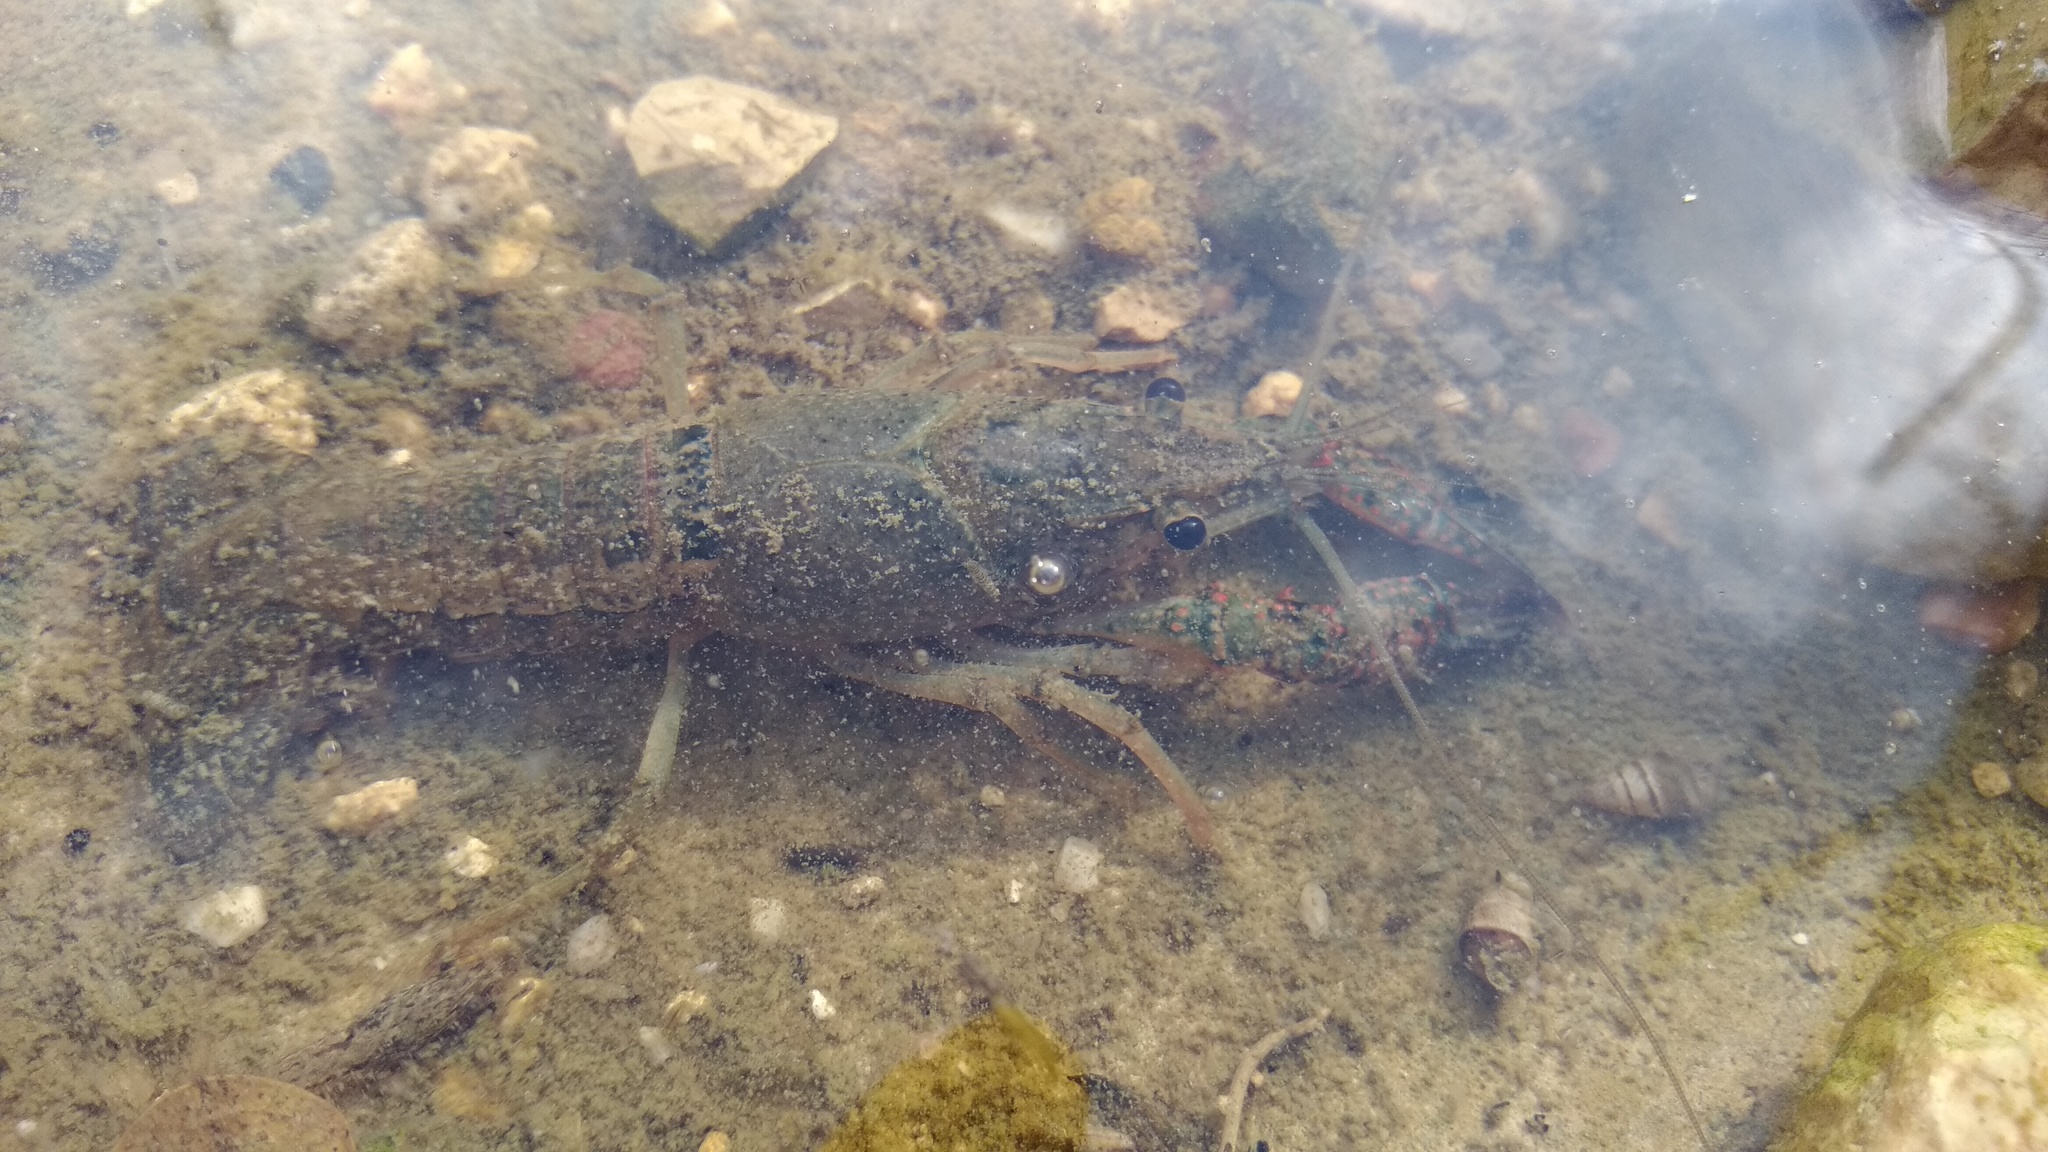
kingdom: Animalia
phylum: Arthropoda
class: Malacostraca
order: Decapoda
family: Cambaridae
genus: Procambarus
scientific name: Procambarus clarkii
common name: Red swamp crayfish
